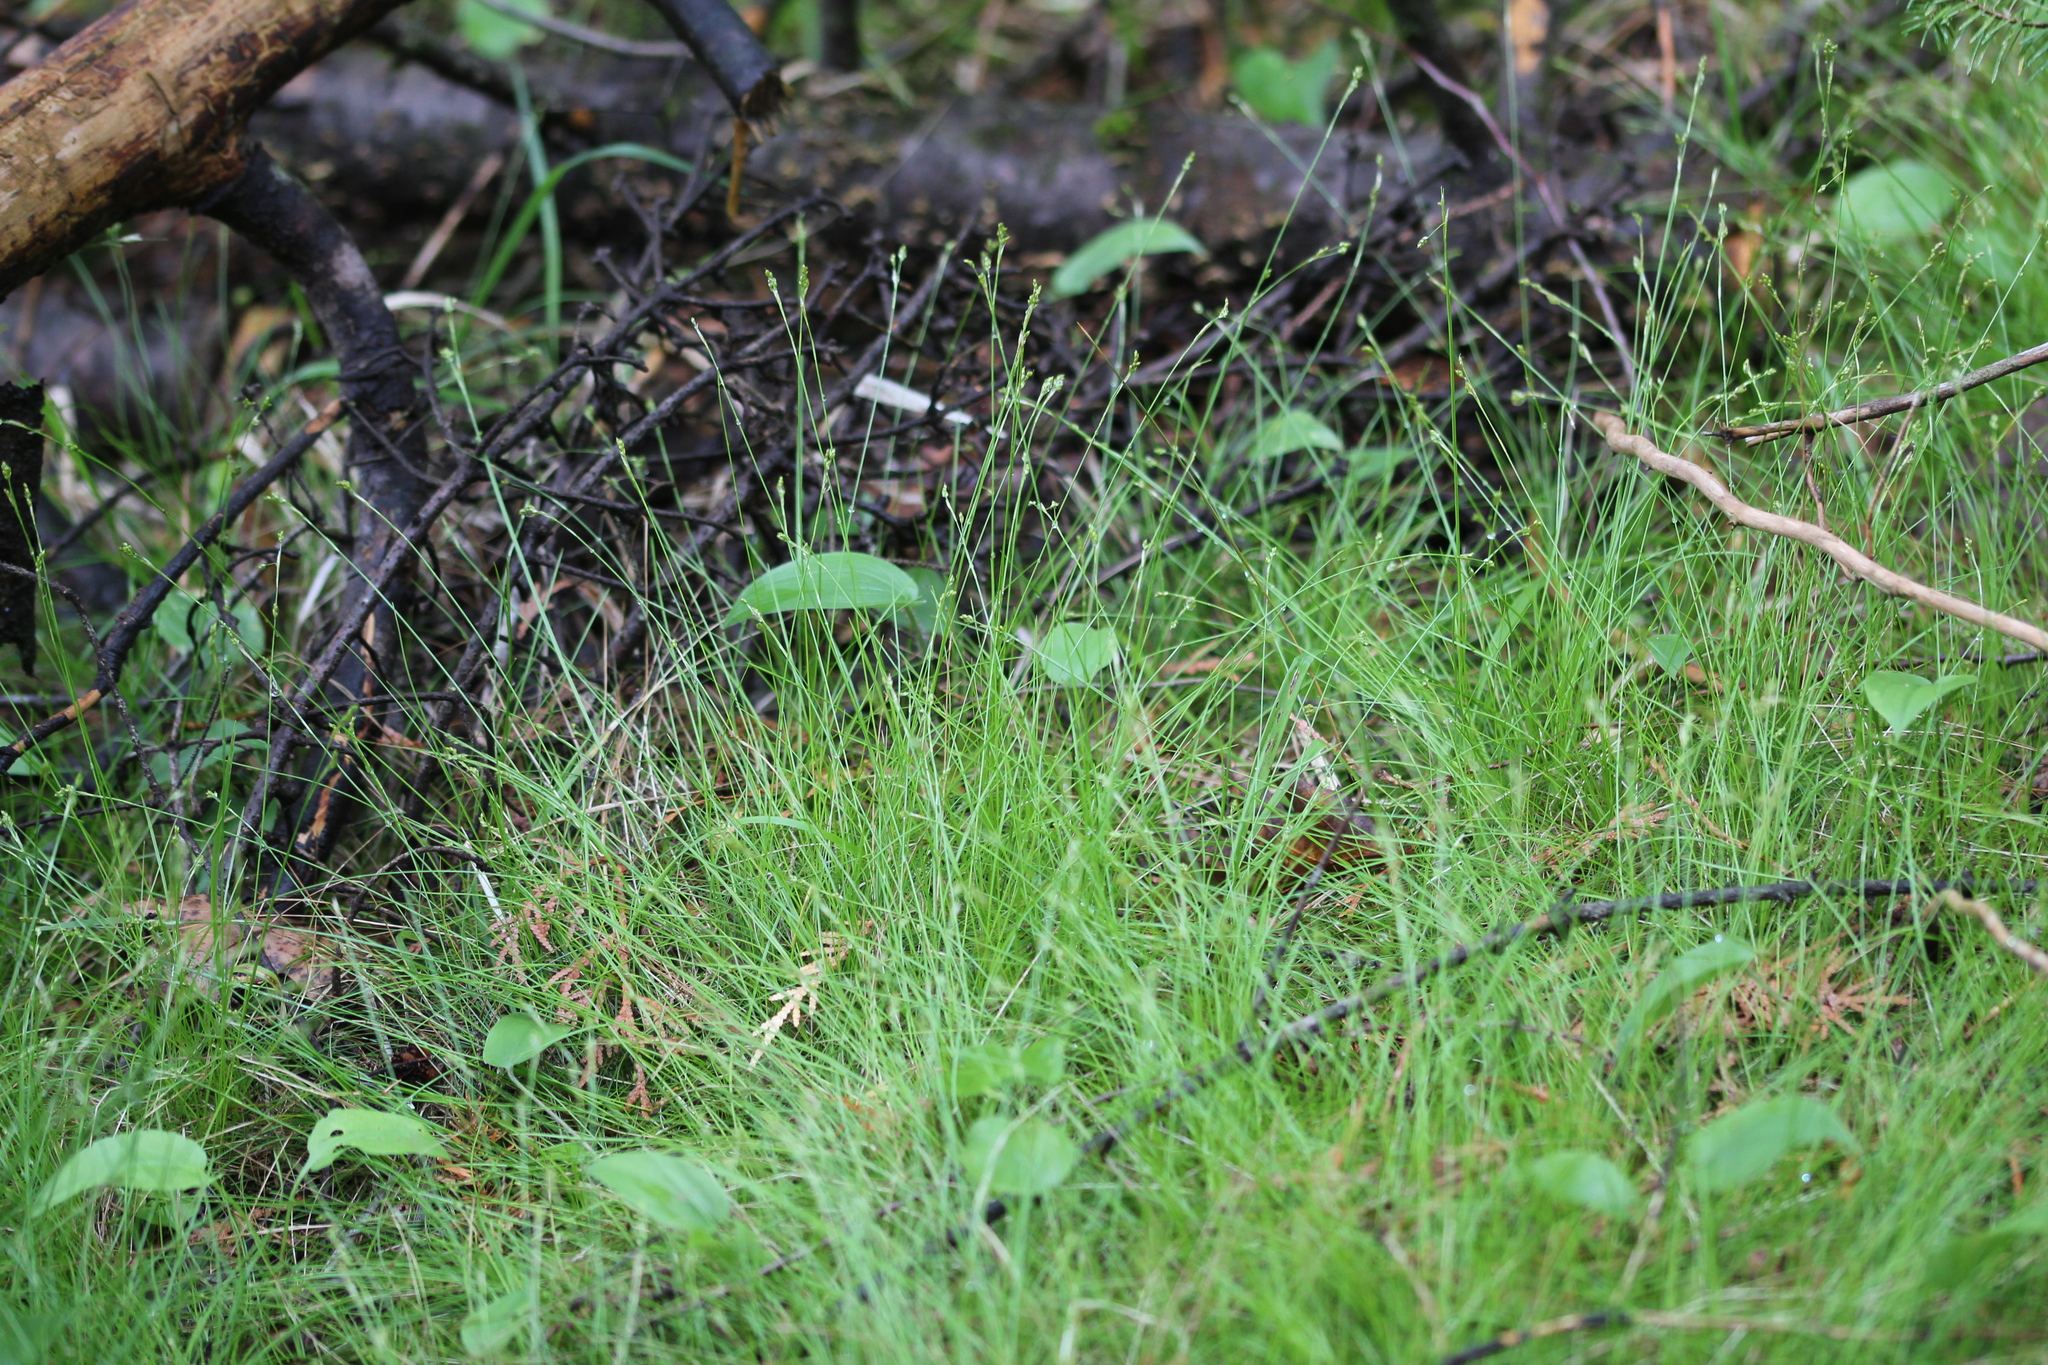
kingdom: Plantae
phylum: Tracheophyta
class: Liliopsida
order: Poales
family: Cyperaceae
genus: Carex
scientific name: Carex eburnea
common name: Bristle-leaved sedge
